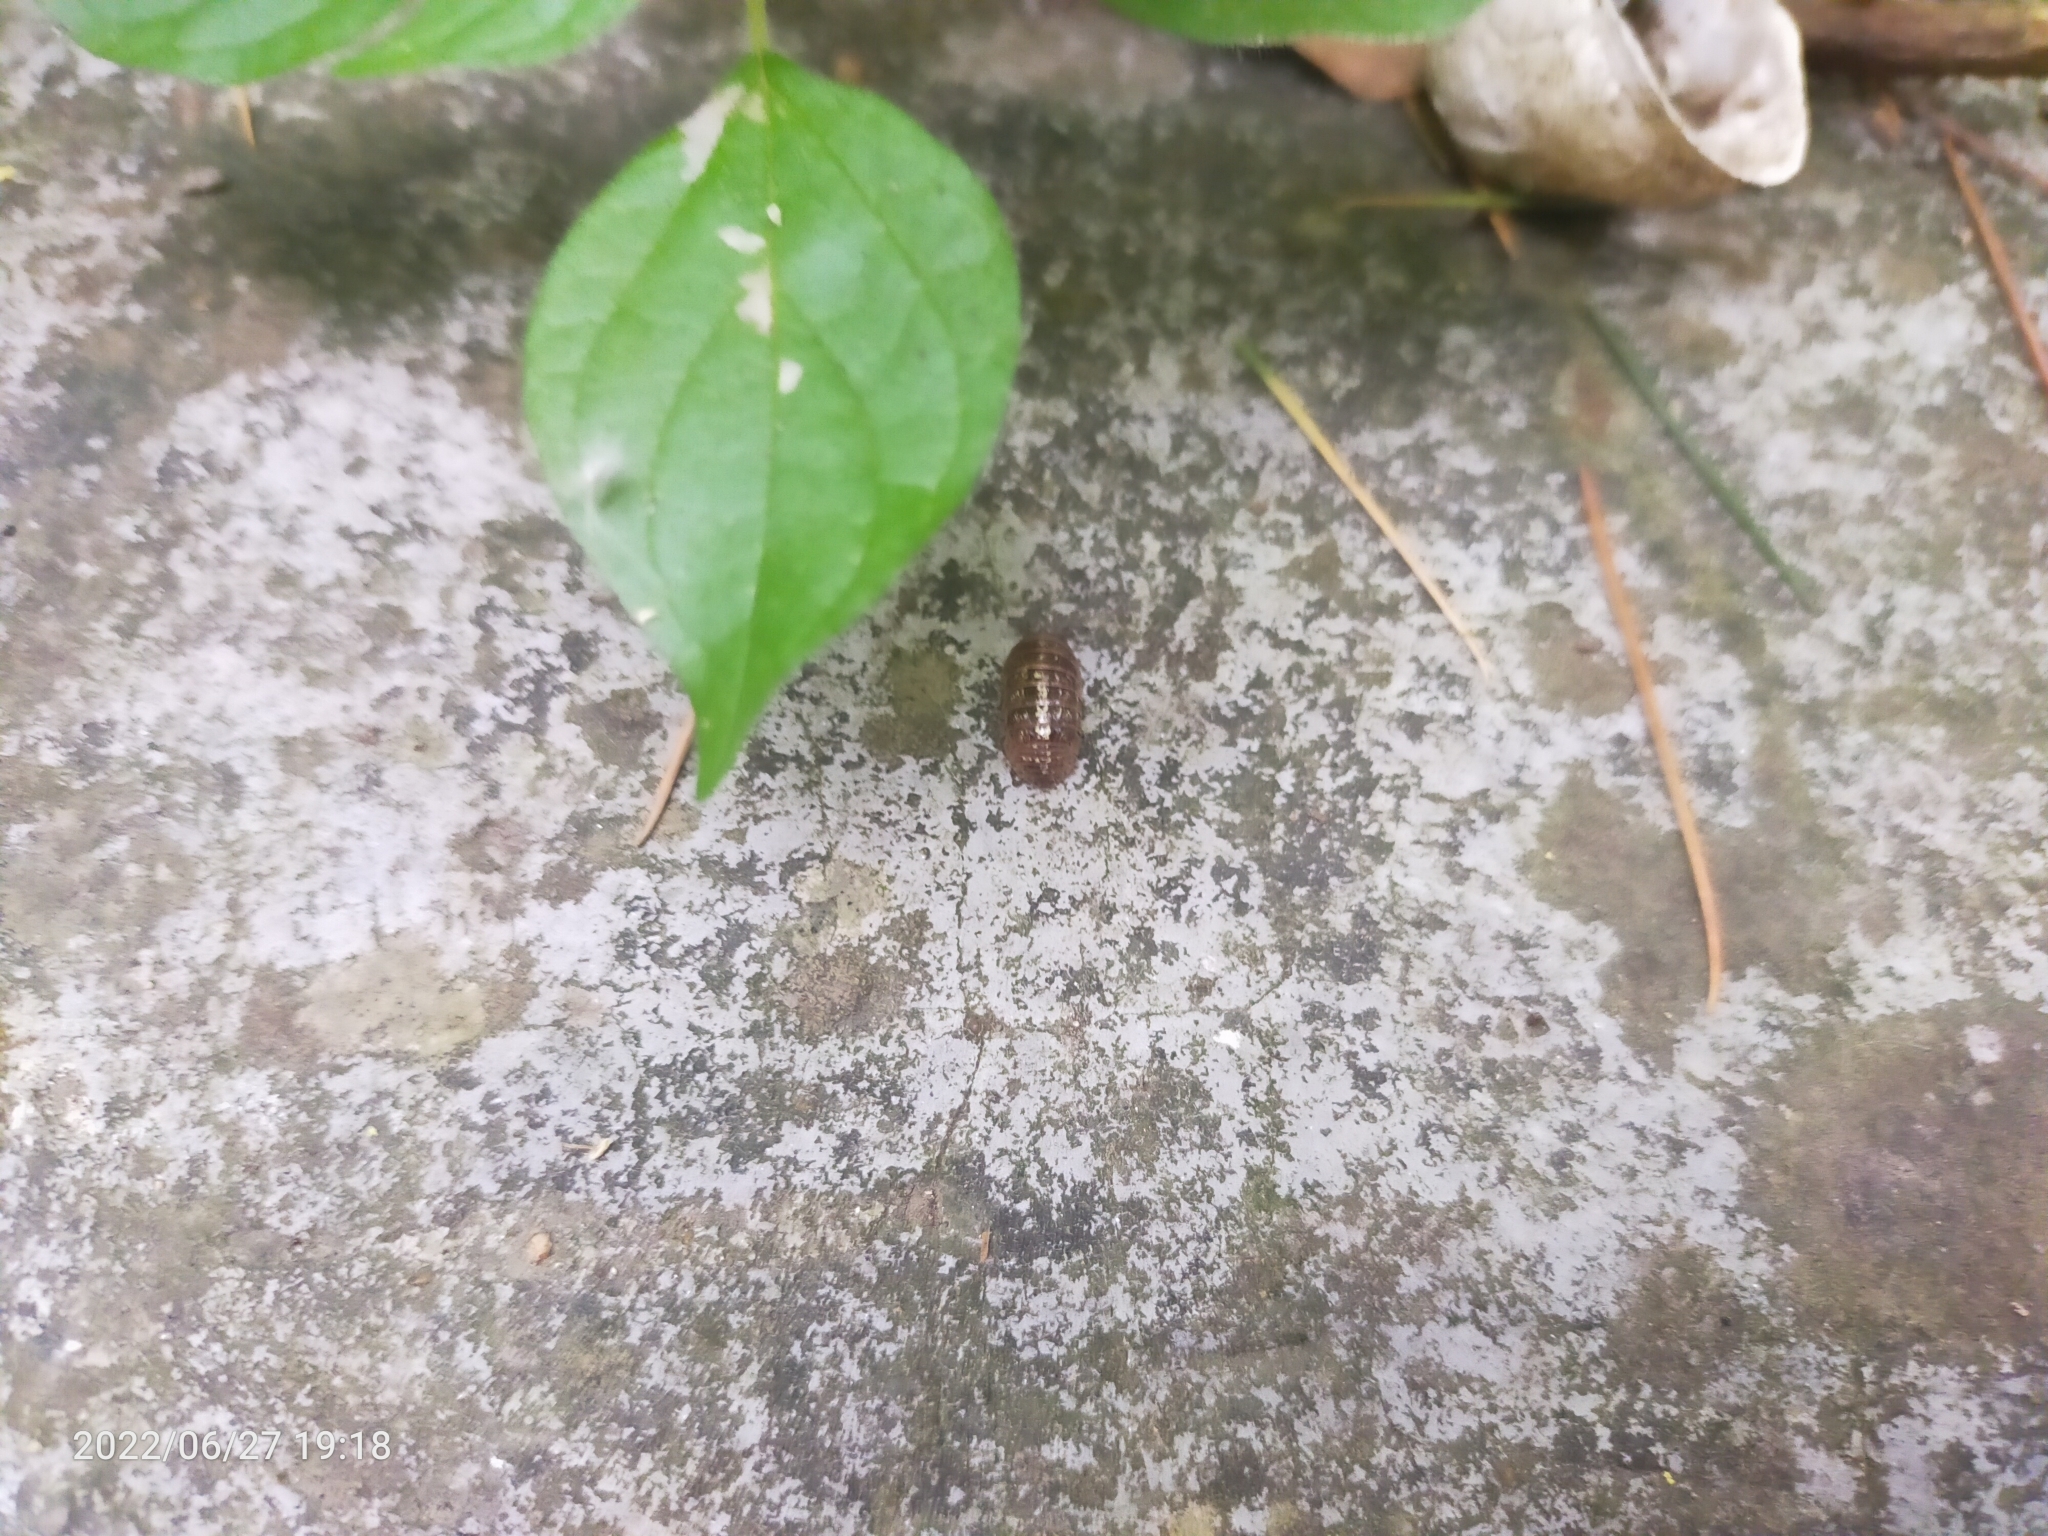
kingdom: Animalia
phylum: Arthropoda
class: Malacostraca
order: Isopoda
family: Armadillidiidae
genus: Armadillidium
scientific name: Armadillidium vulgare
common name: Common pill woodlouse
